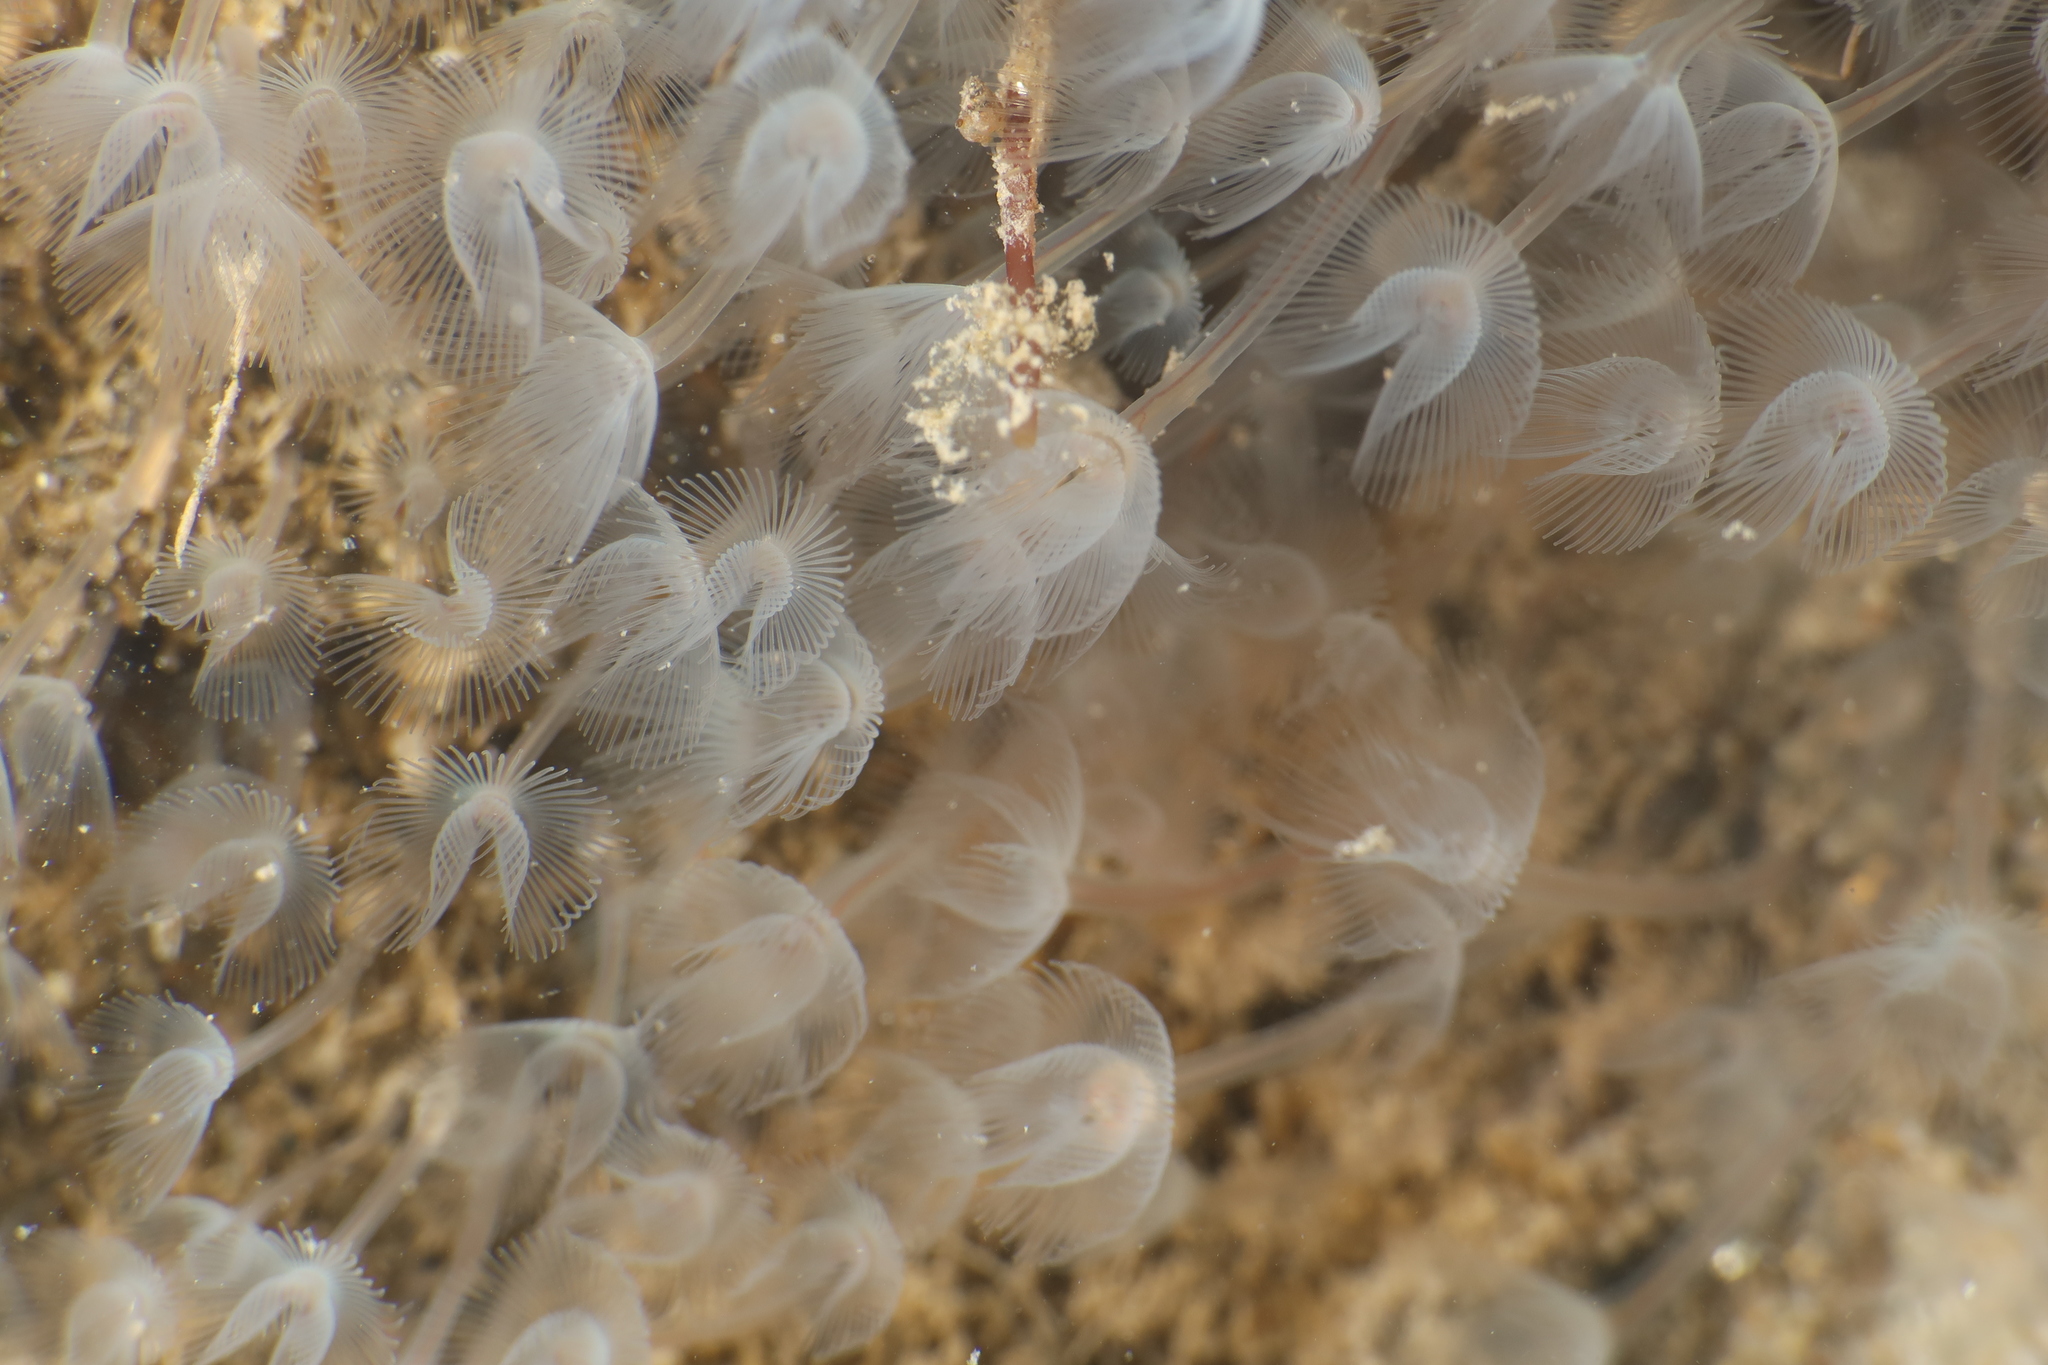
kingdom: Animalia
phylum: Phoronida
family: Phoronidae
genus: Phoronis
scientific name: Phoronis hippocrepia
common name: Phoronid
